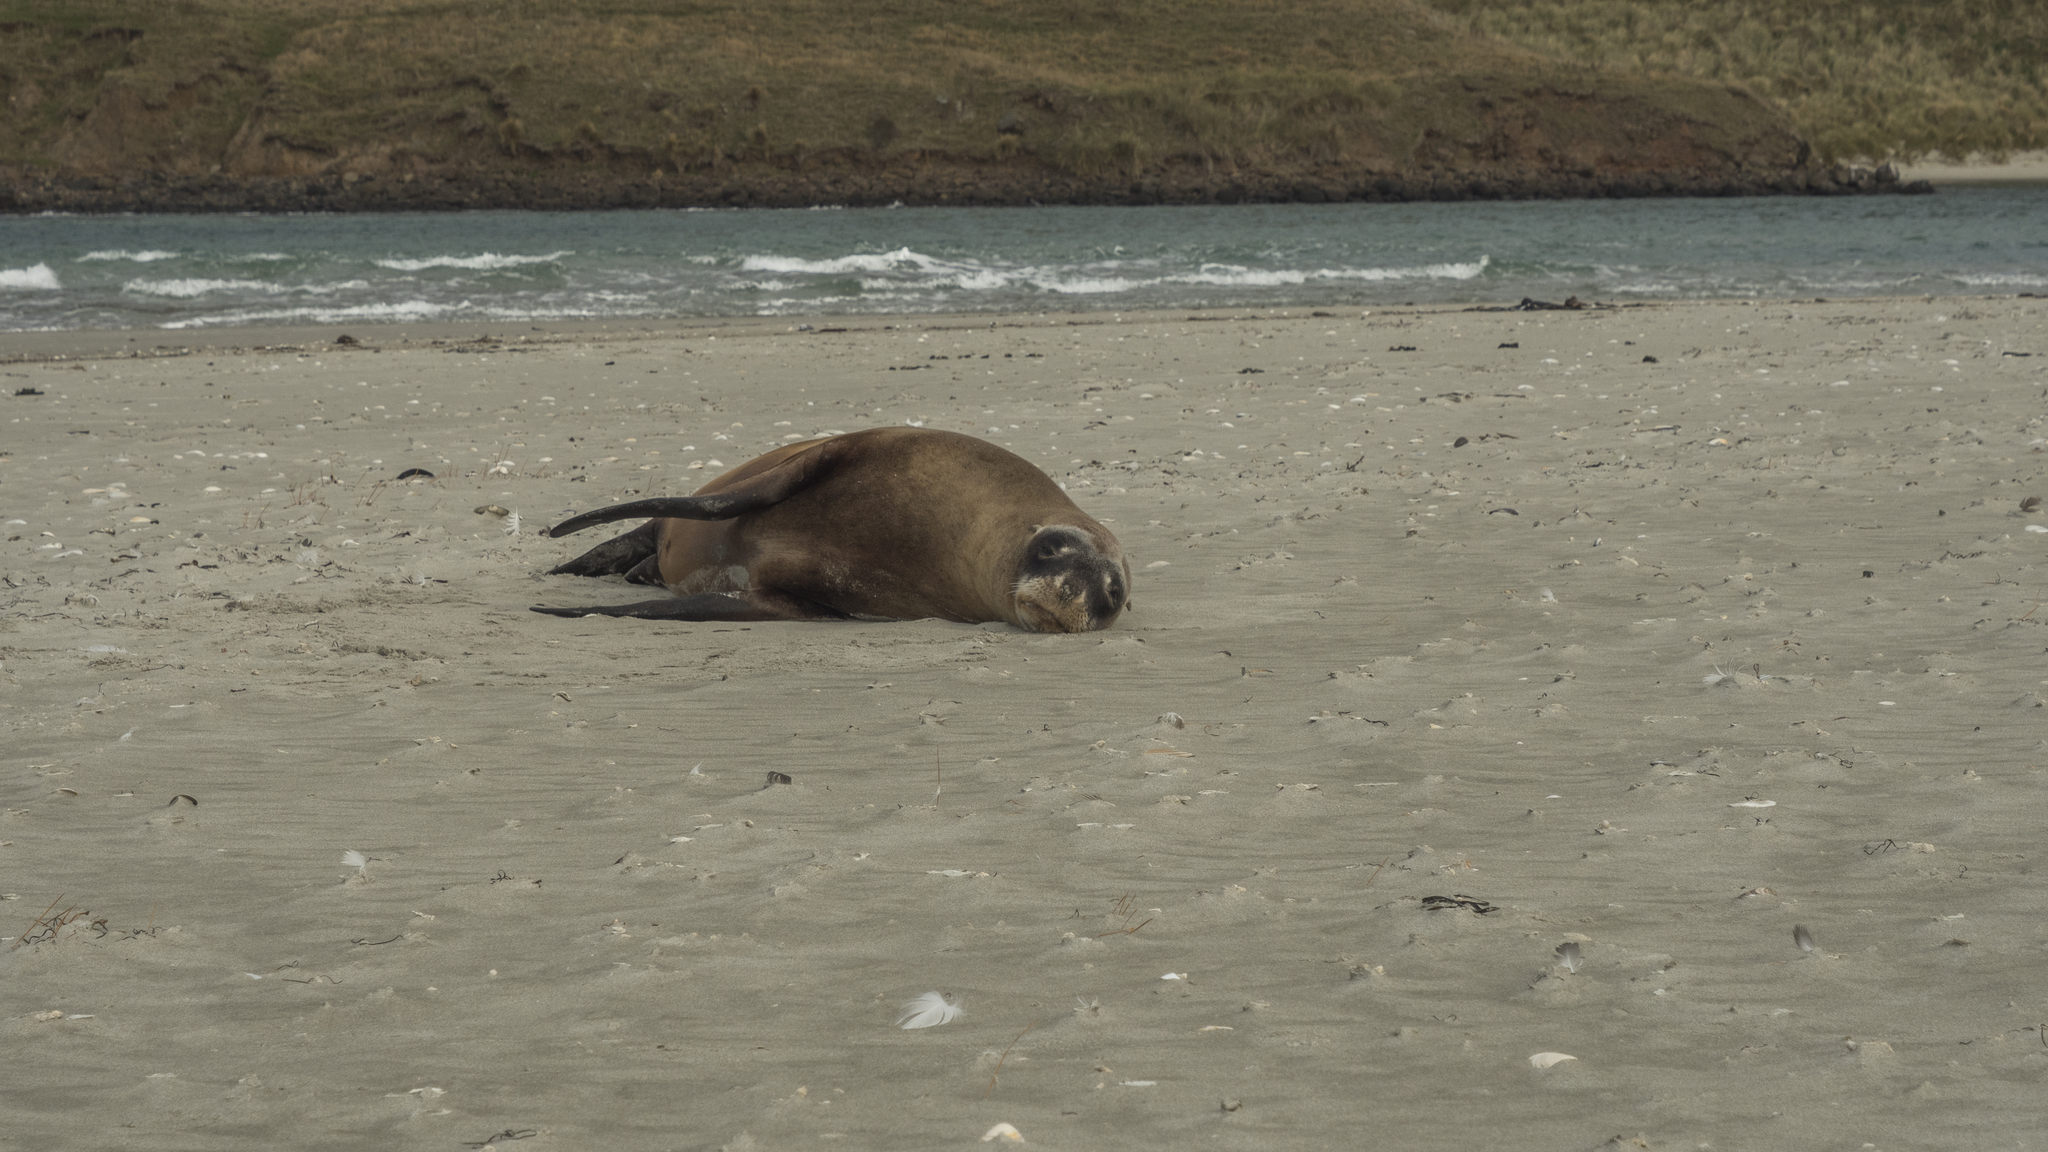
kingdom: Animalia
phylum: Chordata
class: Mammalia
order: Carnivora
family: Otariidae
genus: Phocarctos
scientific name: Phocarctos hookeri
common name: New zealand sea lion
